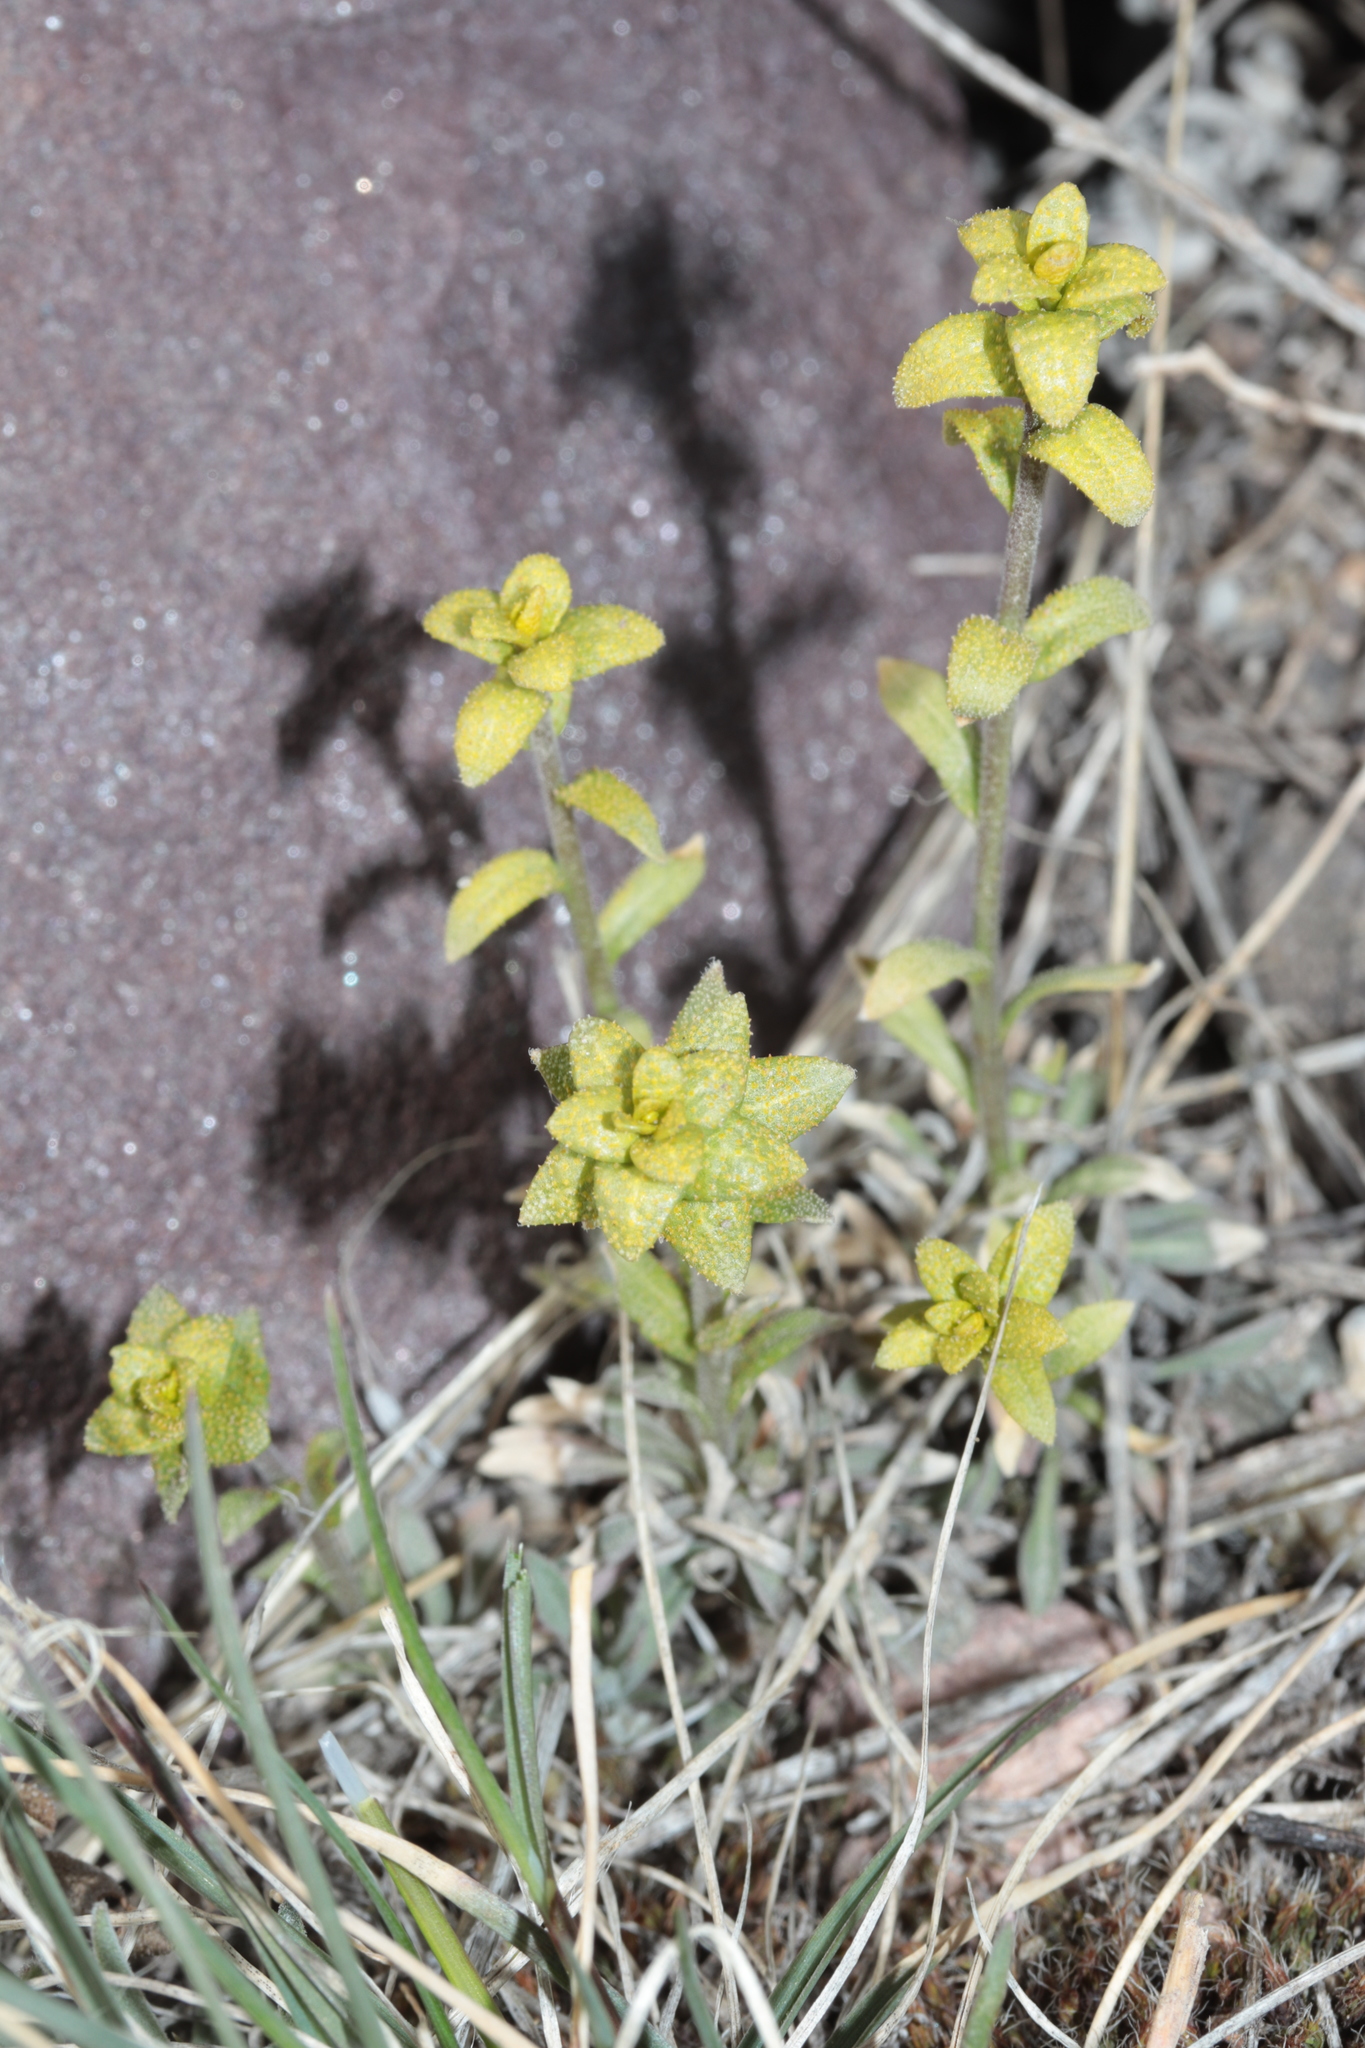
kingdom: Fungi
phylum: Basidiomycota
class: Pucciniomycetes
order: Pucciniales
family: Pucciniaceae
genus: Puccinia
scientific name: Puccinia monoica
